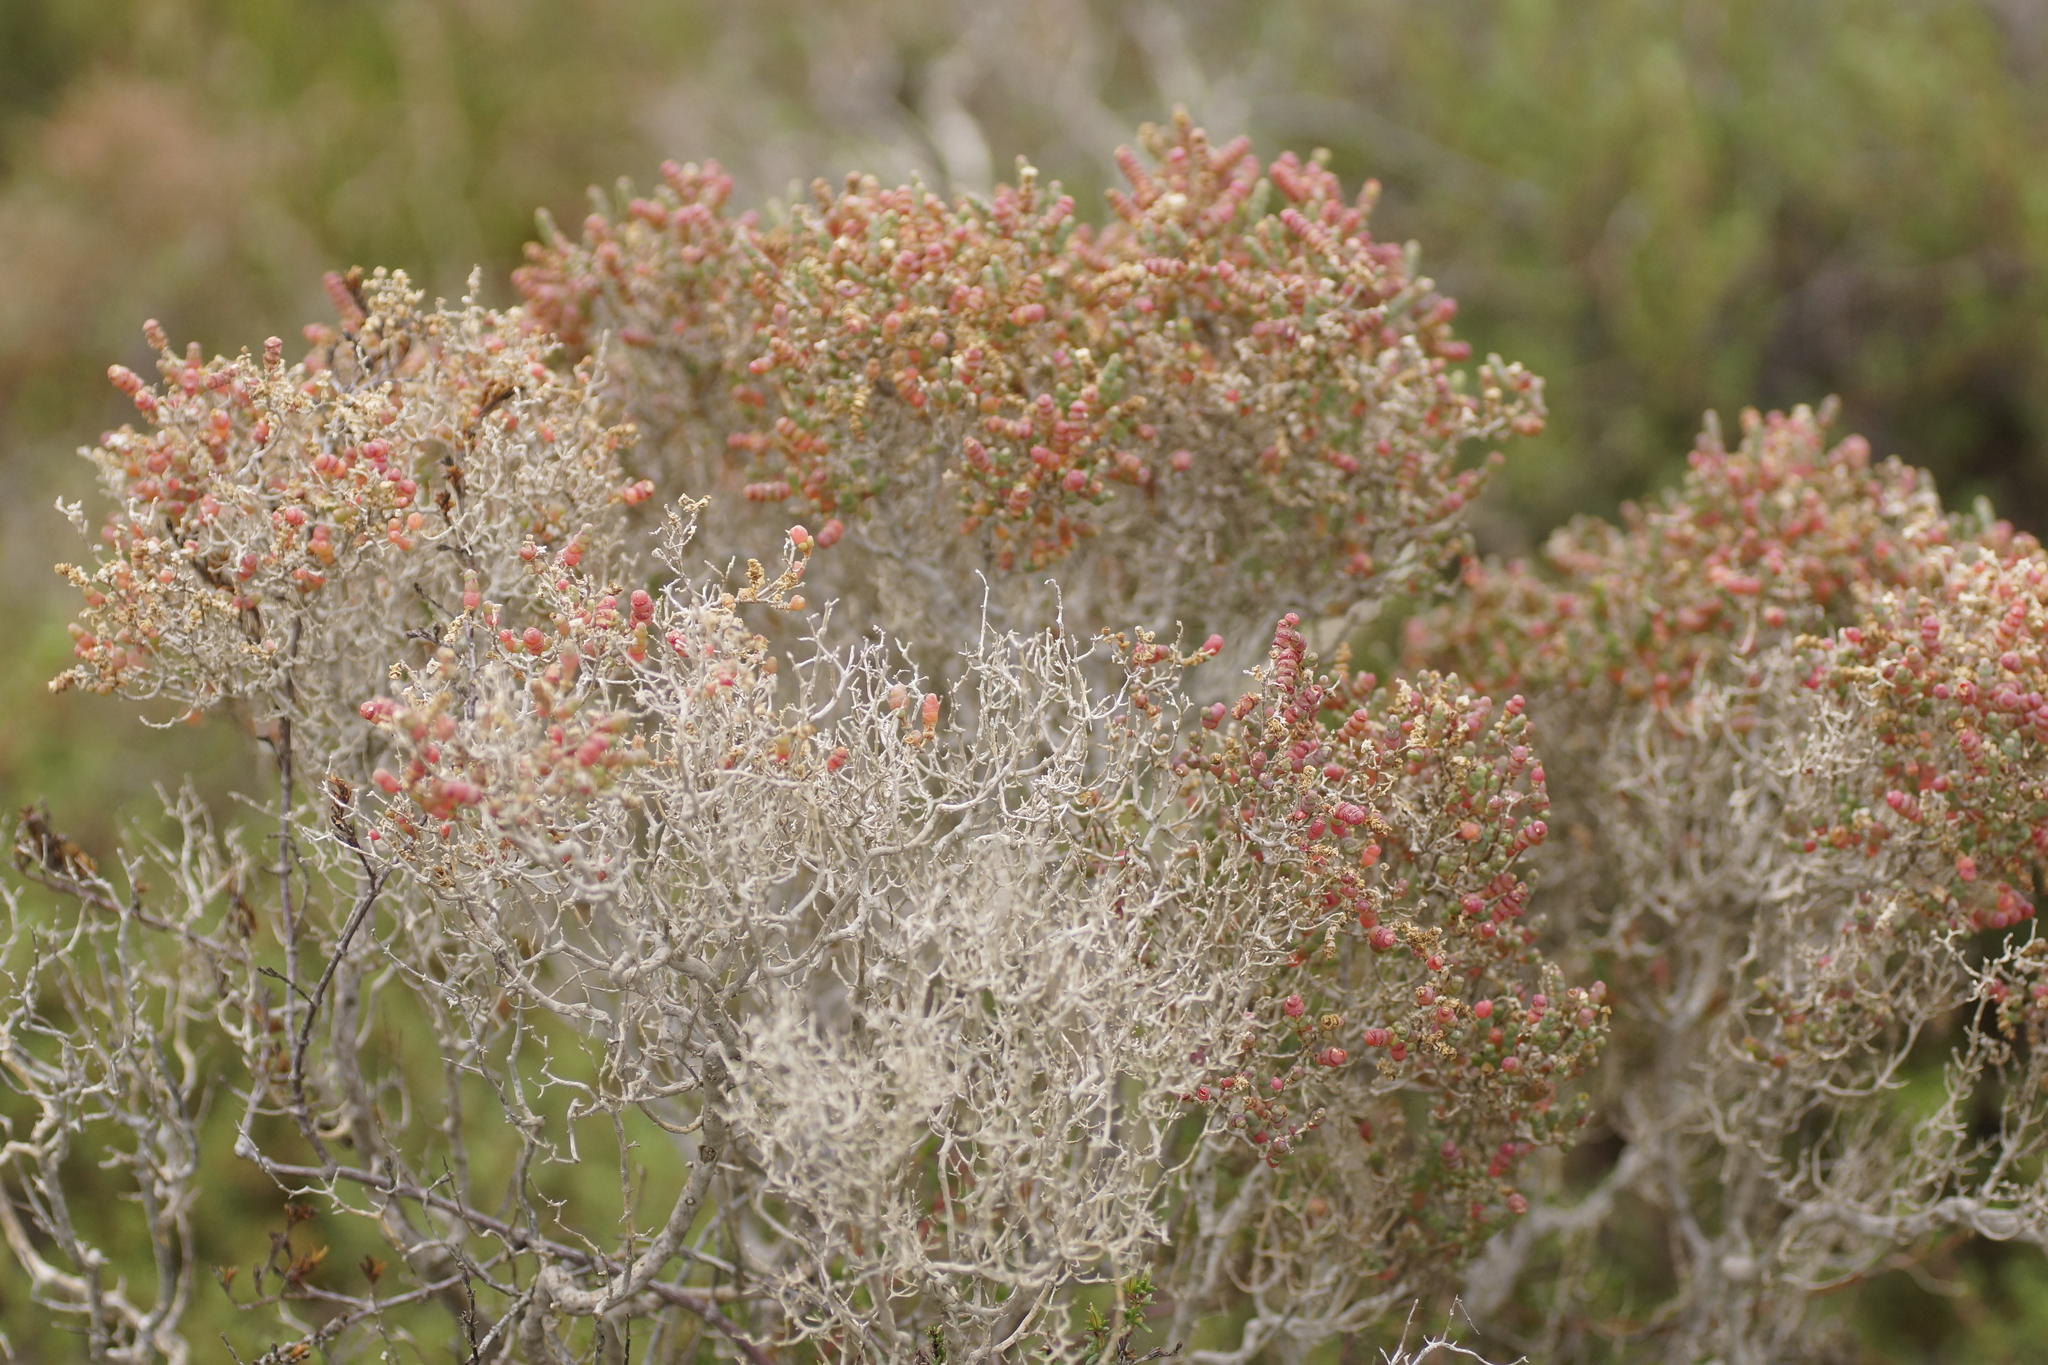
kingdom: Plantae
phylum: Tracheophyta
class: Magnoliopsida
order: Caryophyllales
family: Amaranthaceae
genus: Tecticornia
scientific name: Tecticornia arbuscula
